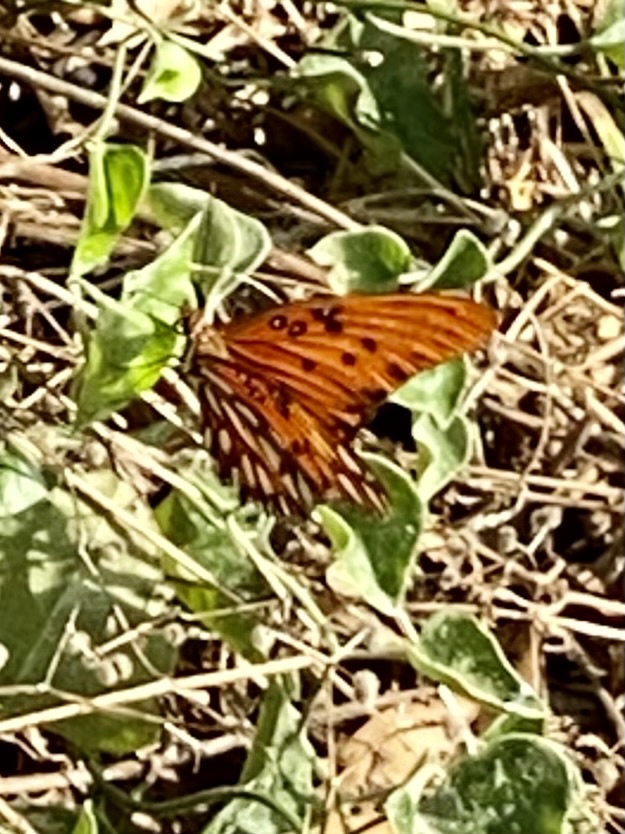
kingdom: Animalia
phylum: Arthropoda
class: Insecta
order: Lepidoptera
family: Nymphalidae
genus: Dione
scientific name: Dione vanillae
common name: Gulf fritillary
